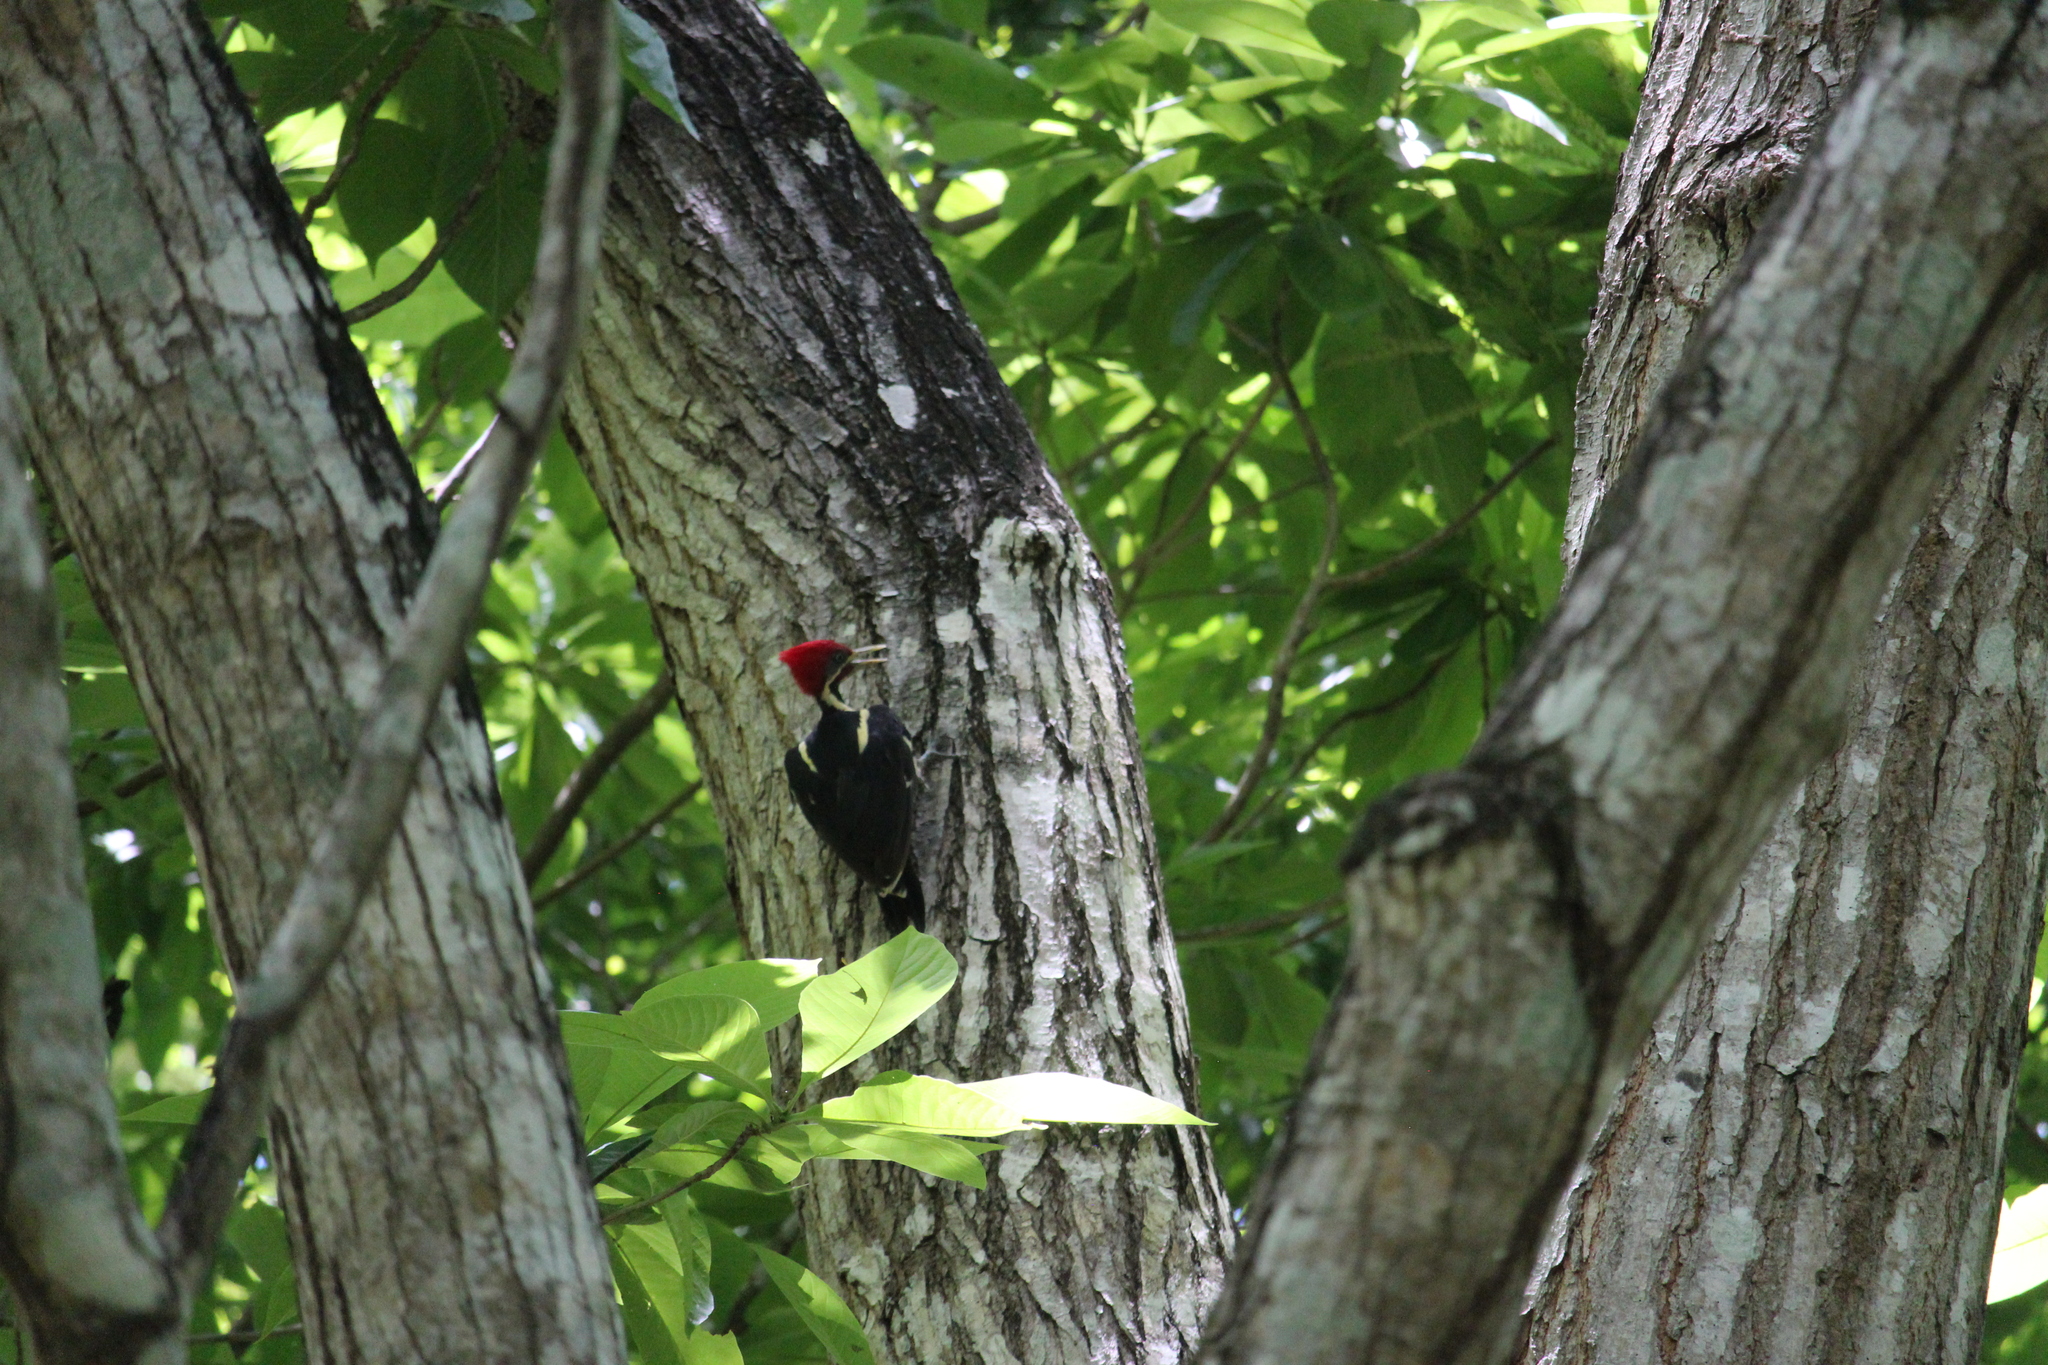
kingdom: Animalia
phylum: Chordata
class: Aves
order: Piciformes
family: Picidae
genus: Dryocopus
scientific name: Dryocopus lineatus
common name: Lineated woodpecker
